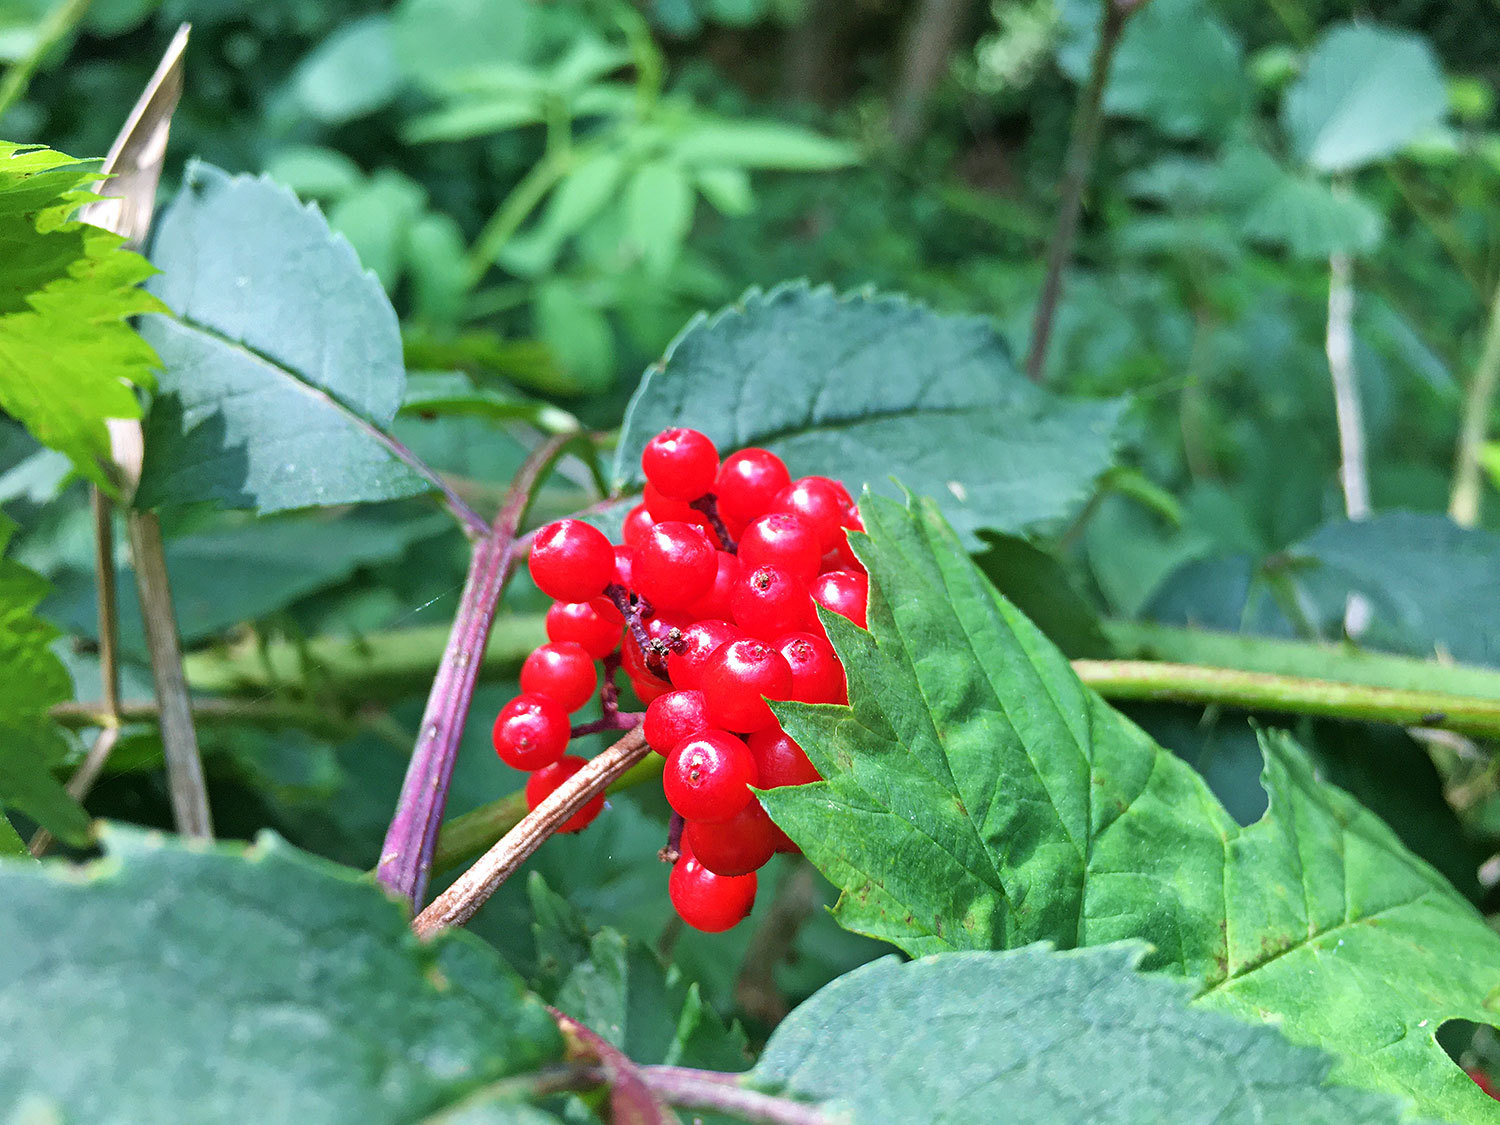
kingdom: Plantae
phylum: Tracheophyta
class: Magnoliopsida
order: Dipsacales
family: Viburnaceae
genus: Sambucus
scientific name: Sambucus racemosa
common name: Red-berried elder
